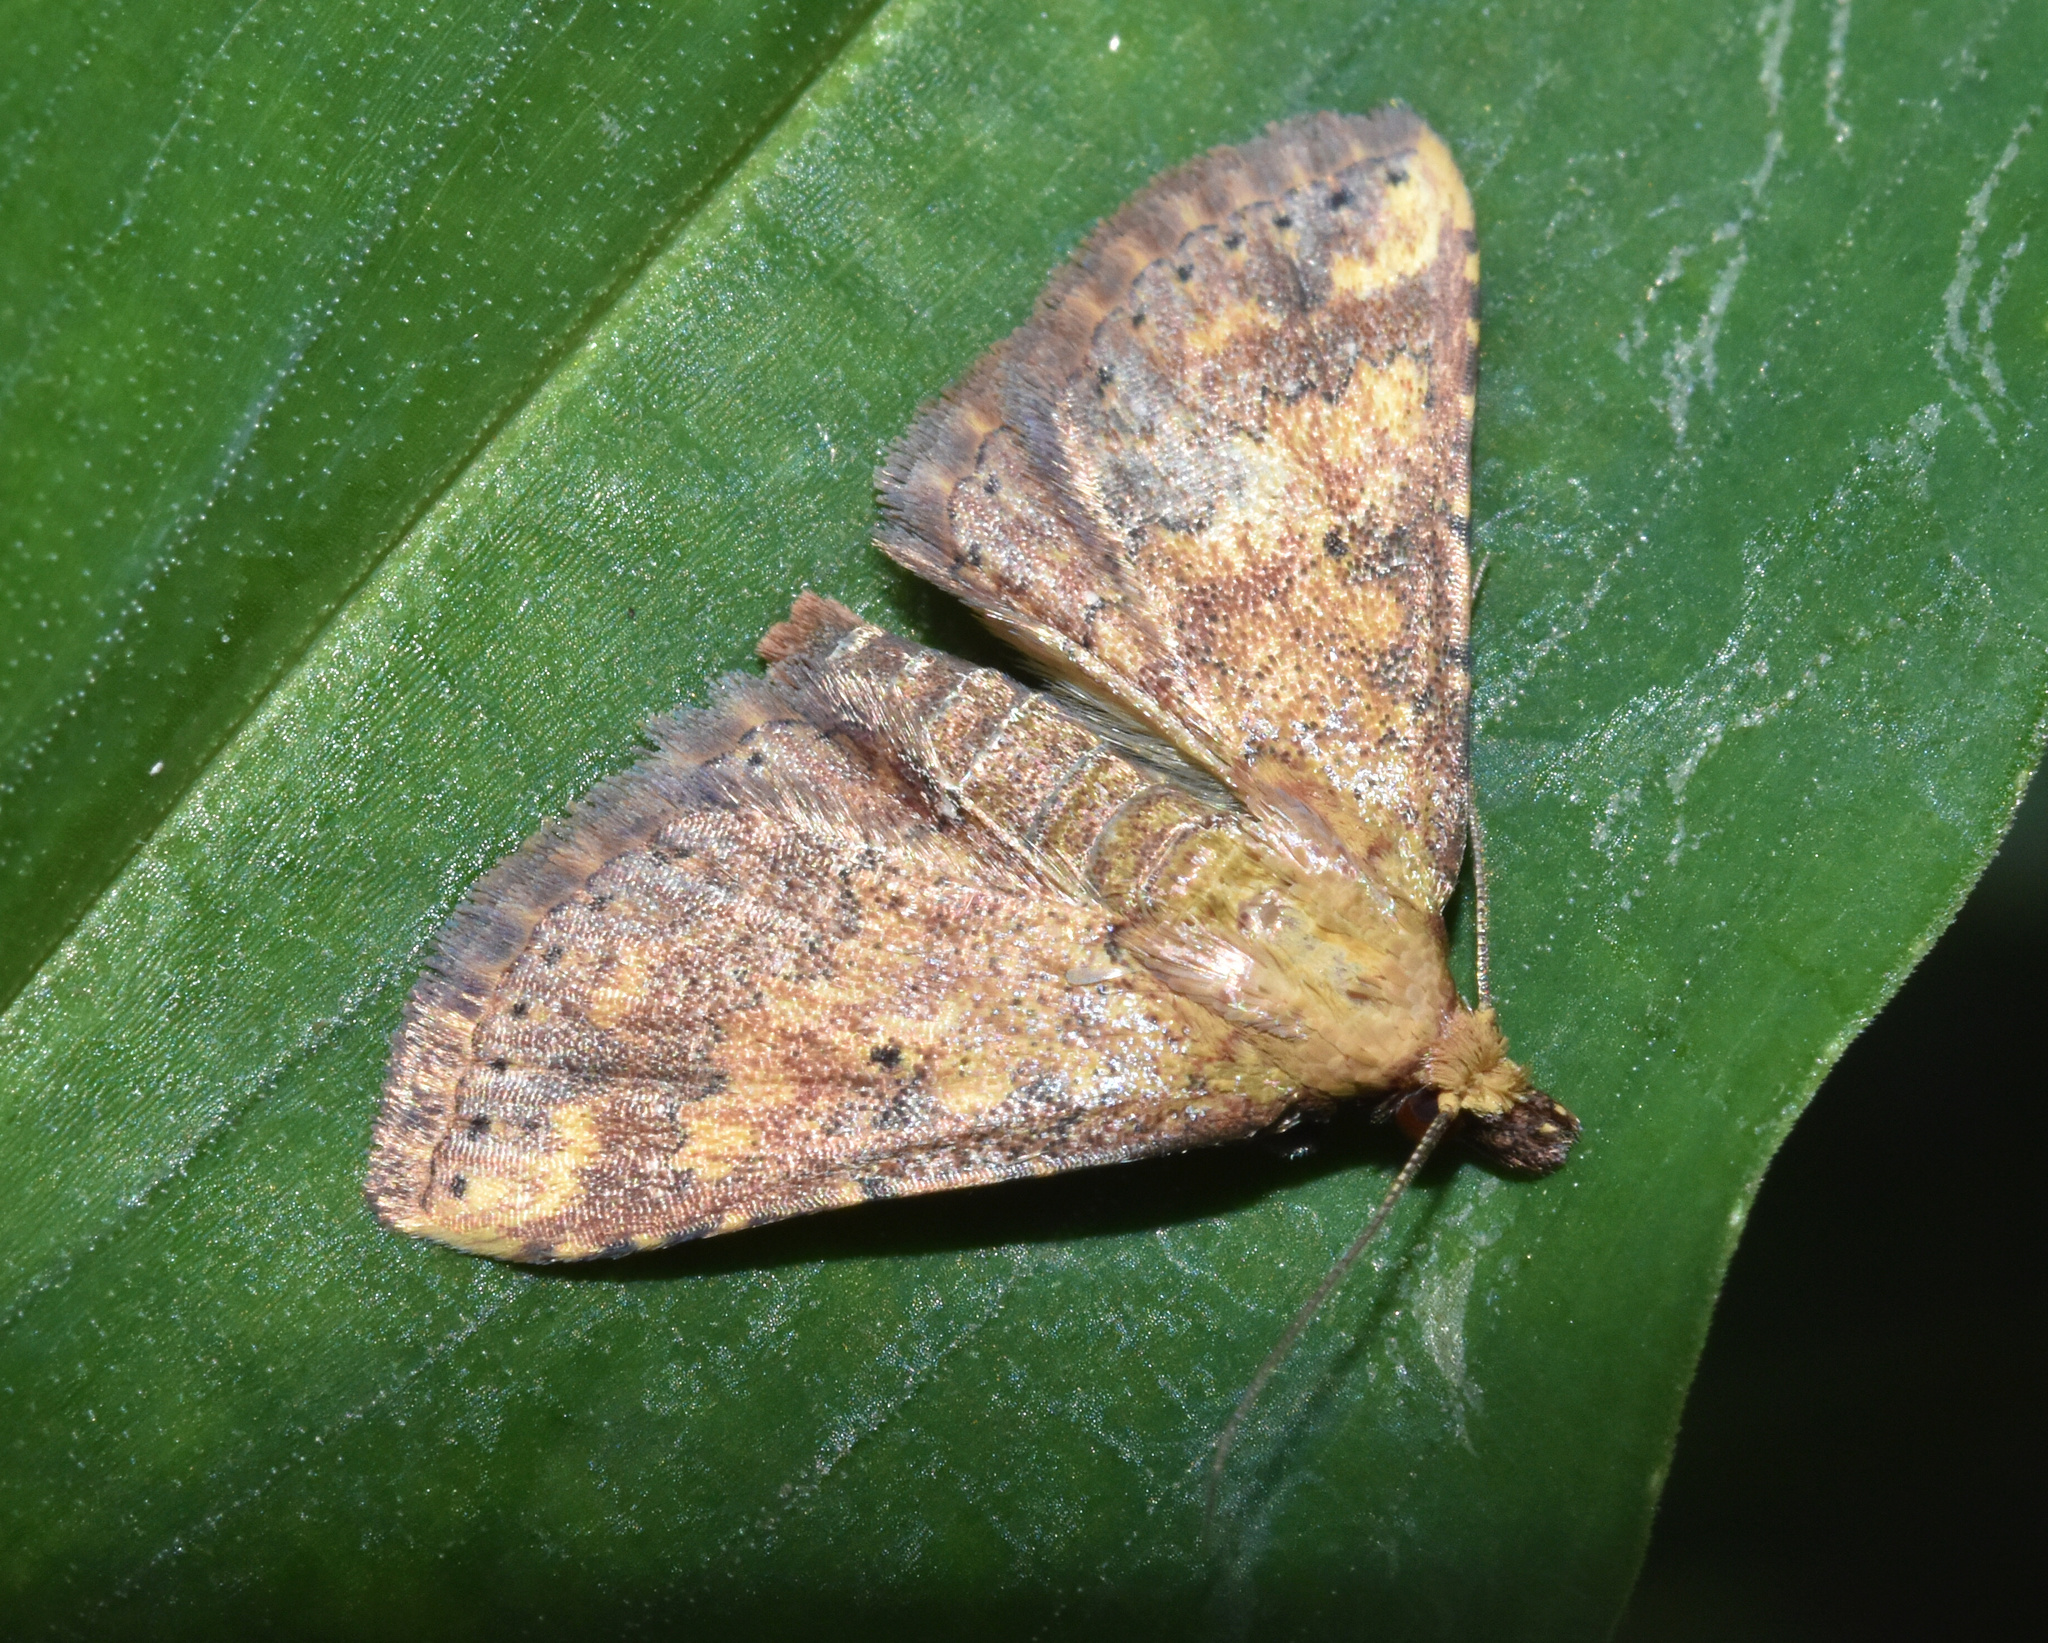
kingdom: Animalia
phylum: Arthropoda
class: Insecta
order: Lepidoptera
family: Noctuidae
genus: Cerynea
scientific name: Cerynea thermesialis
